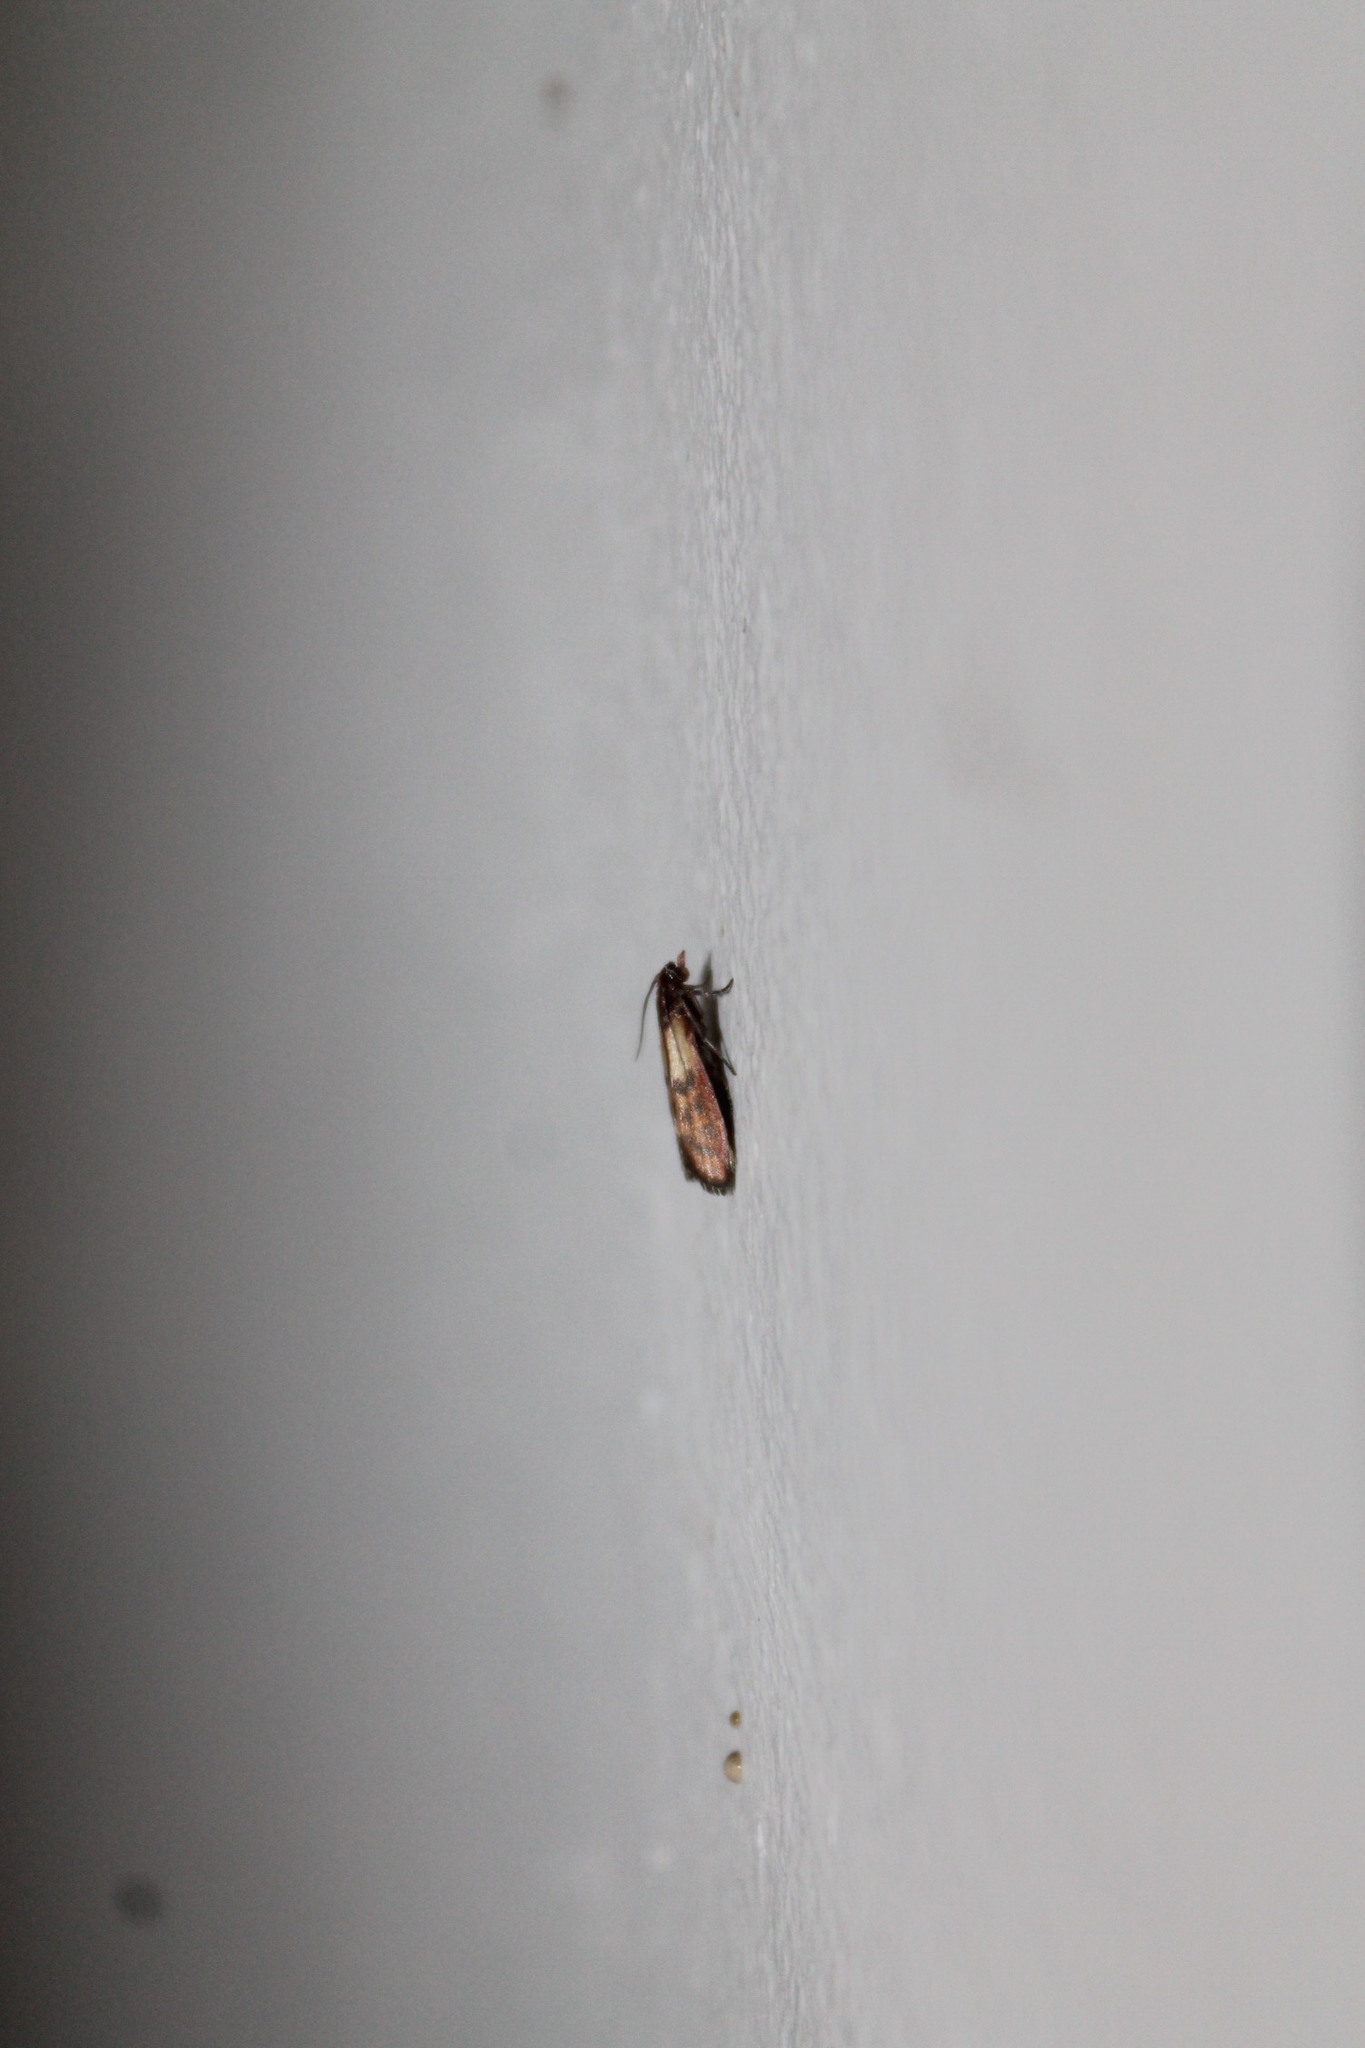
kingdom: Animalia
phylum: Arthropoda
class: Insecta
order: Lepidoptera
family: Pyralidae
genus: Plodia
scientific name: Plodia interpunctella
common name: Indian meal moth
